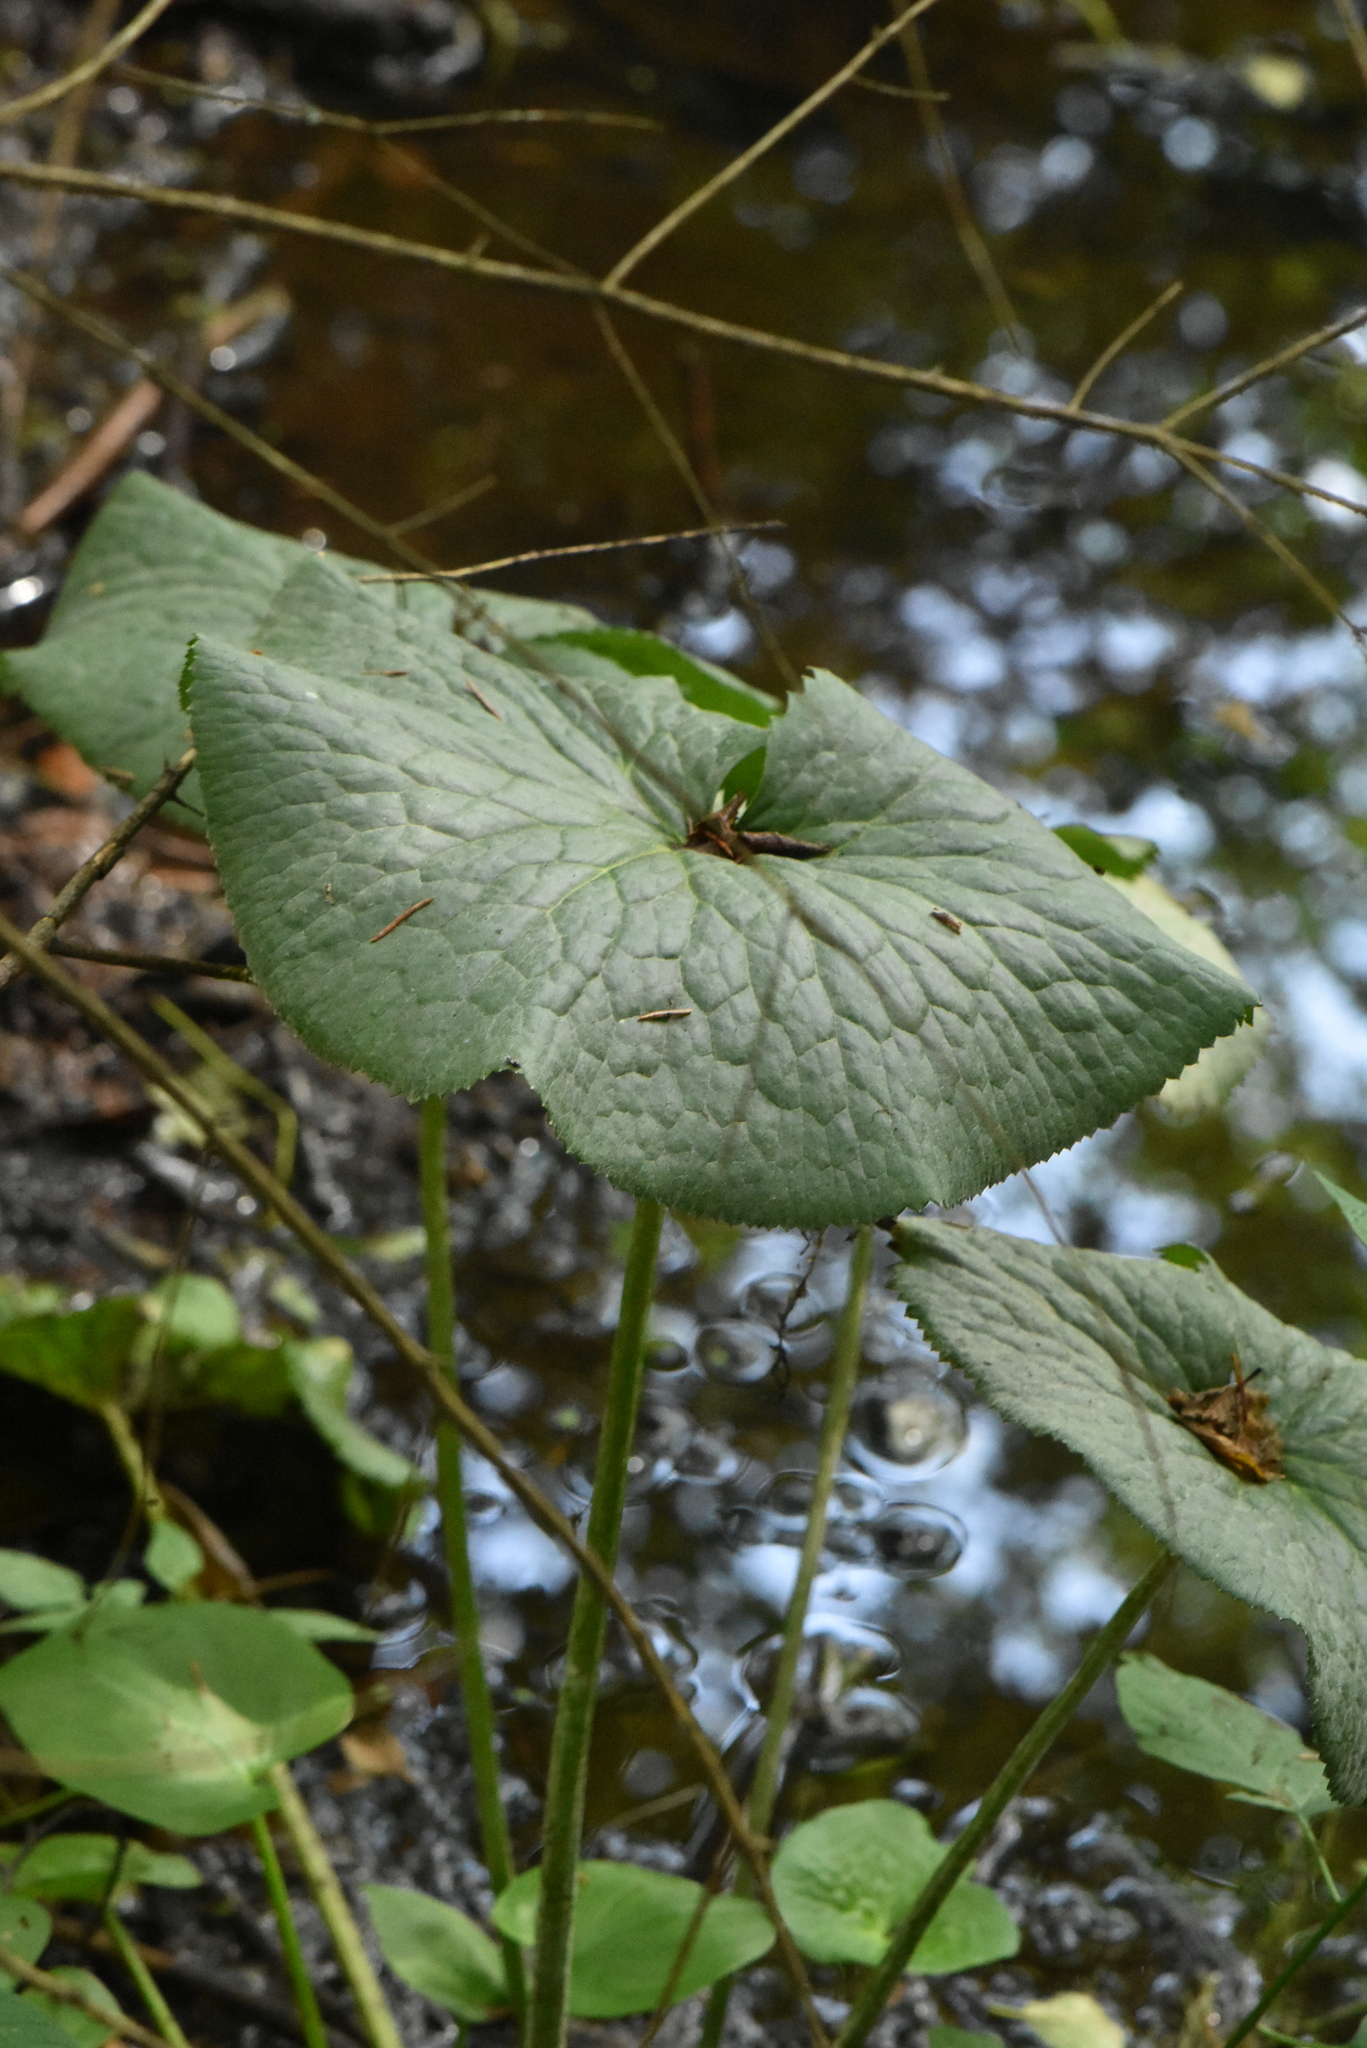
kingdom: Plantae
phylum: Tracheophyta
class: Magnoliopsida
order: Ranunculales
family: Ranunculaceae
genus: Caltha
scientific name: Caltha palustris
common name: Marsh marigold
